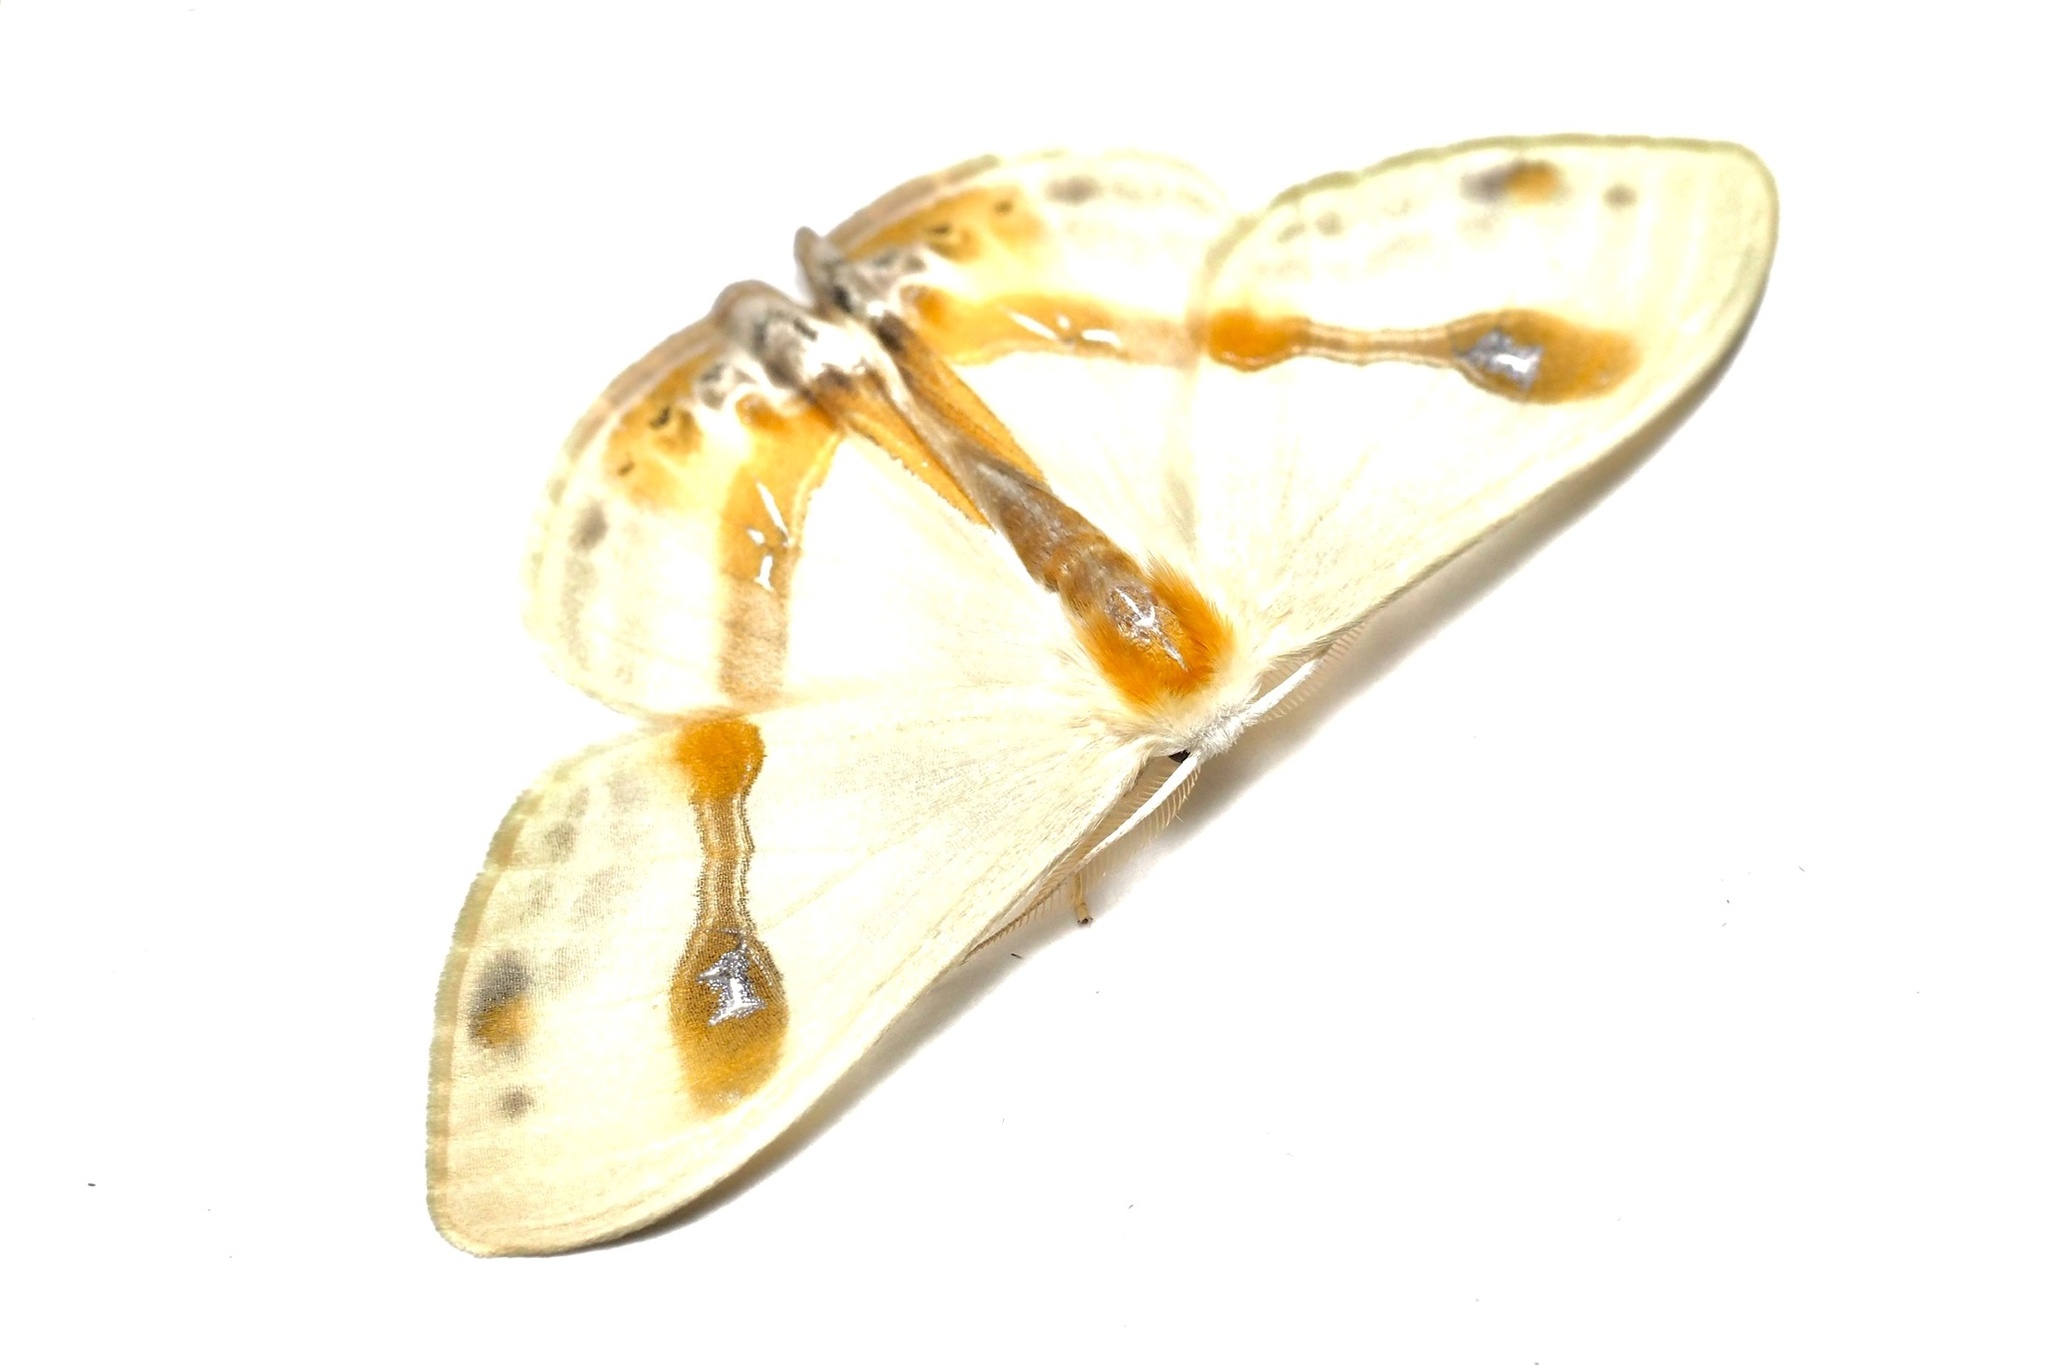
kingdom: Animalia
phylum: Arthropoda
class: Insecta
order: Lepidoptera
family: Drepanidae
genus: Macrocilix
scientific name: Macrocilix mysticata
